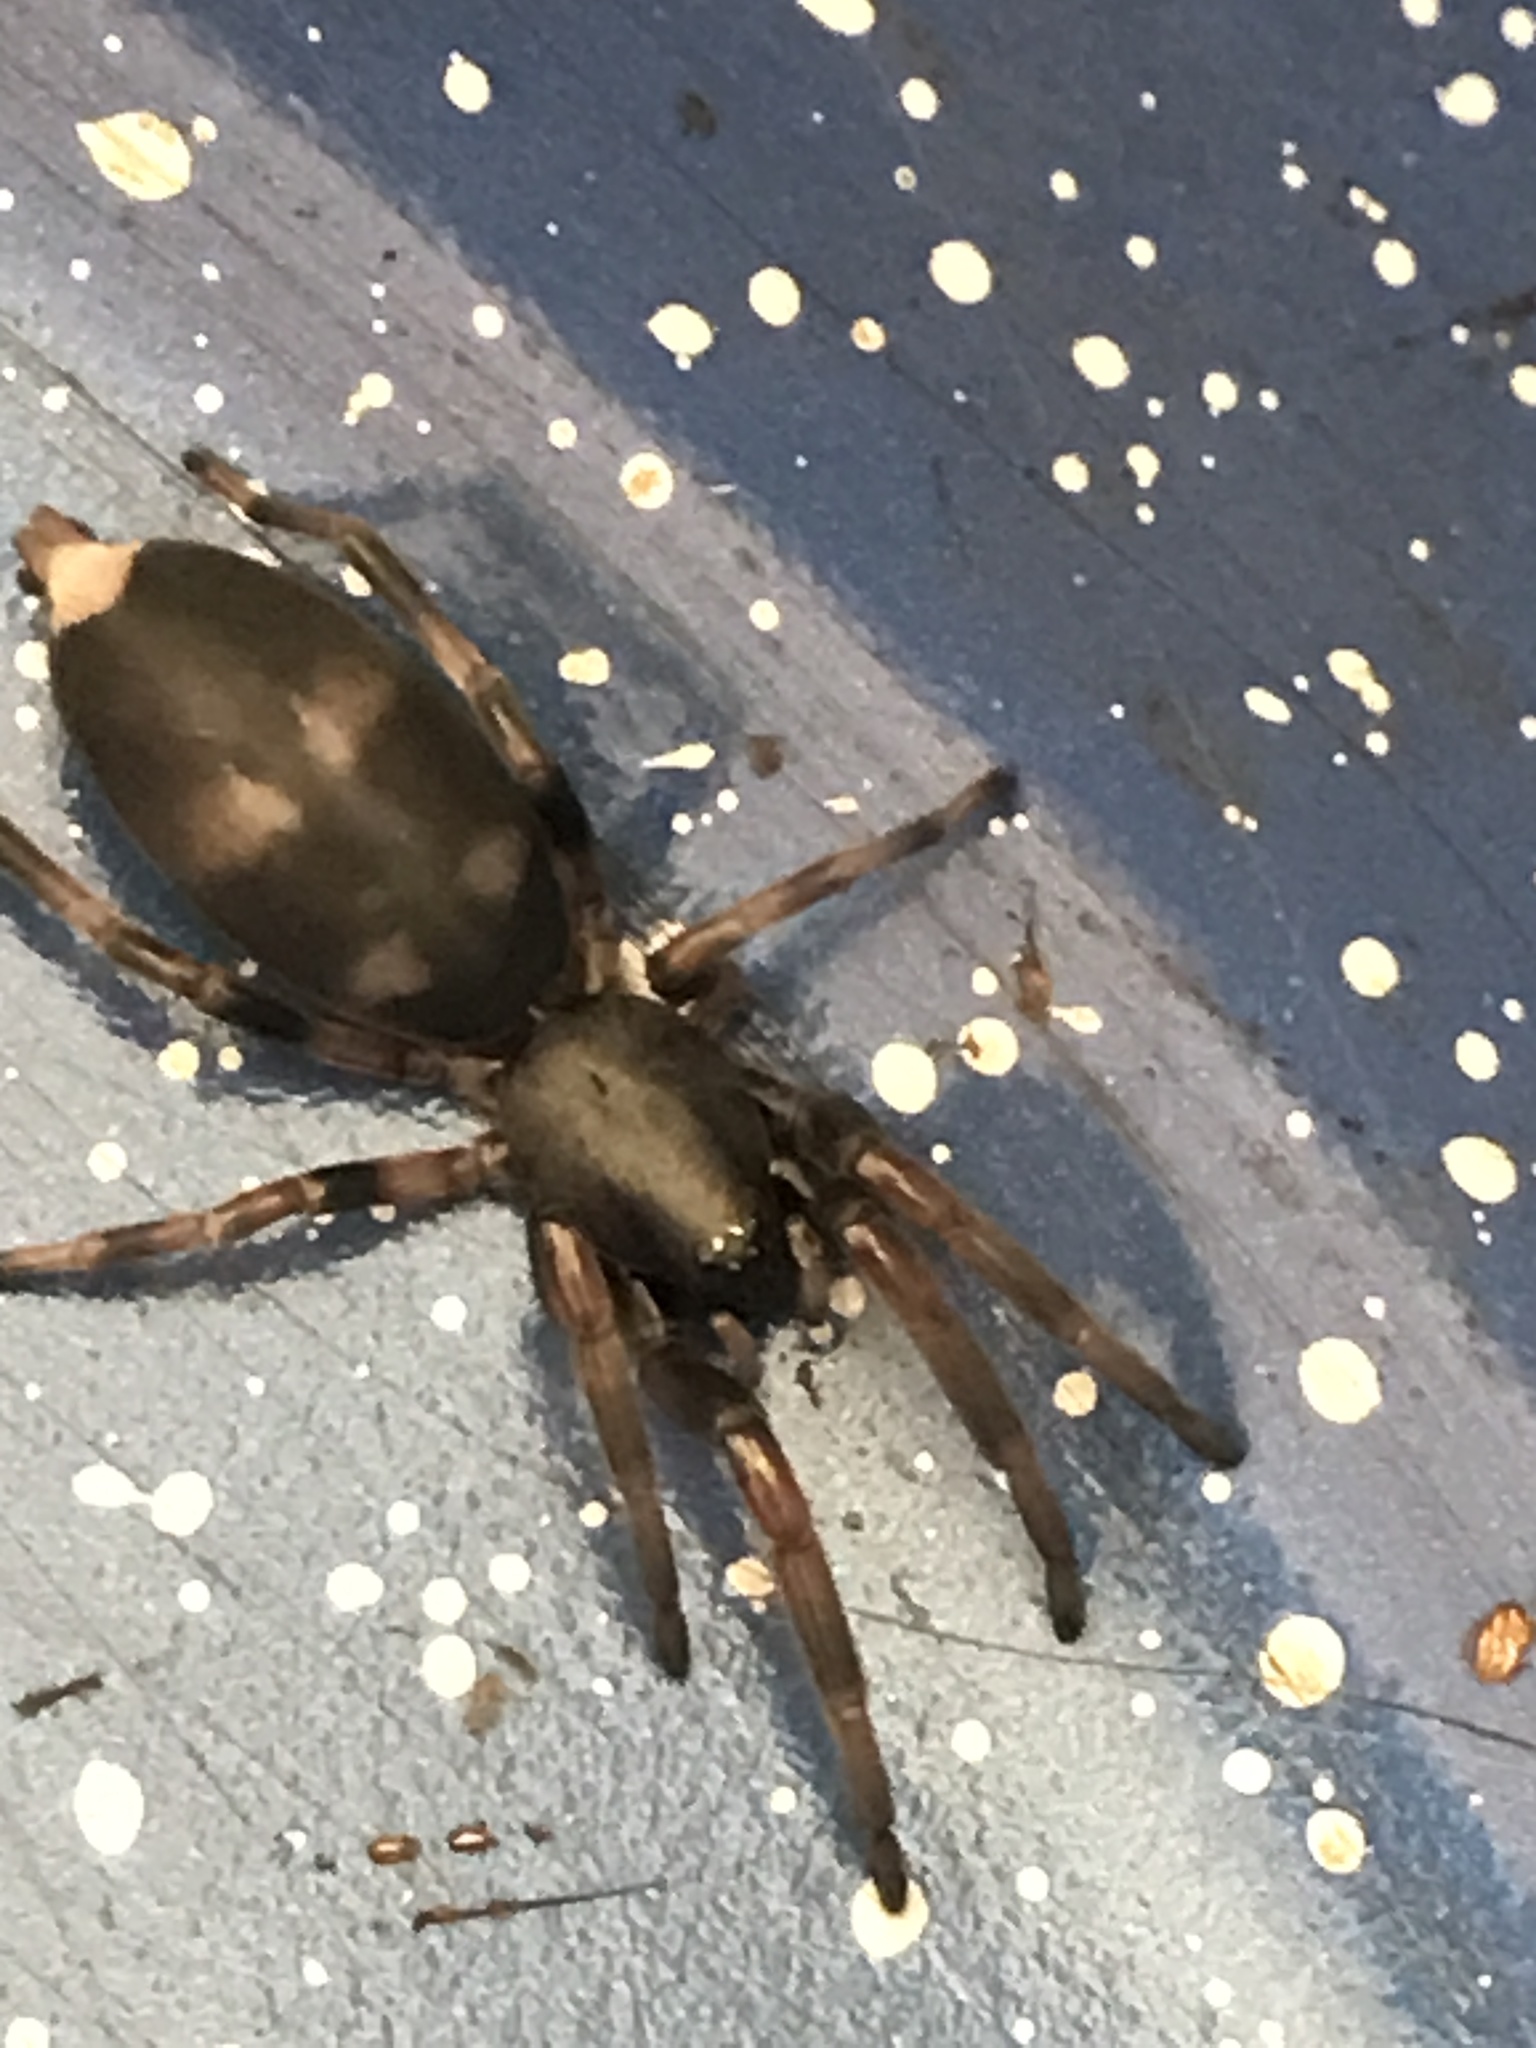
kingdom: Animalia
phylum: Arthropoda
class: Arachnida
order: Araneae
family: Lamponidae
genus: Lampona
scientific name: Lampona murina
